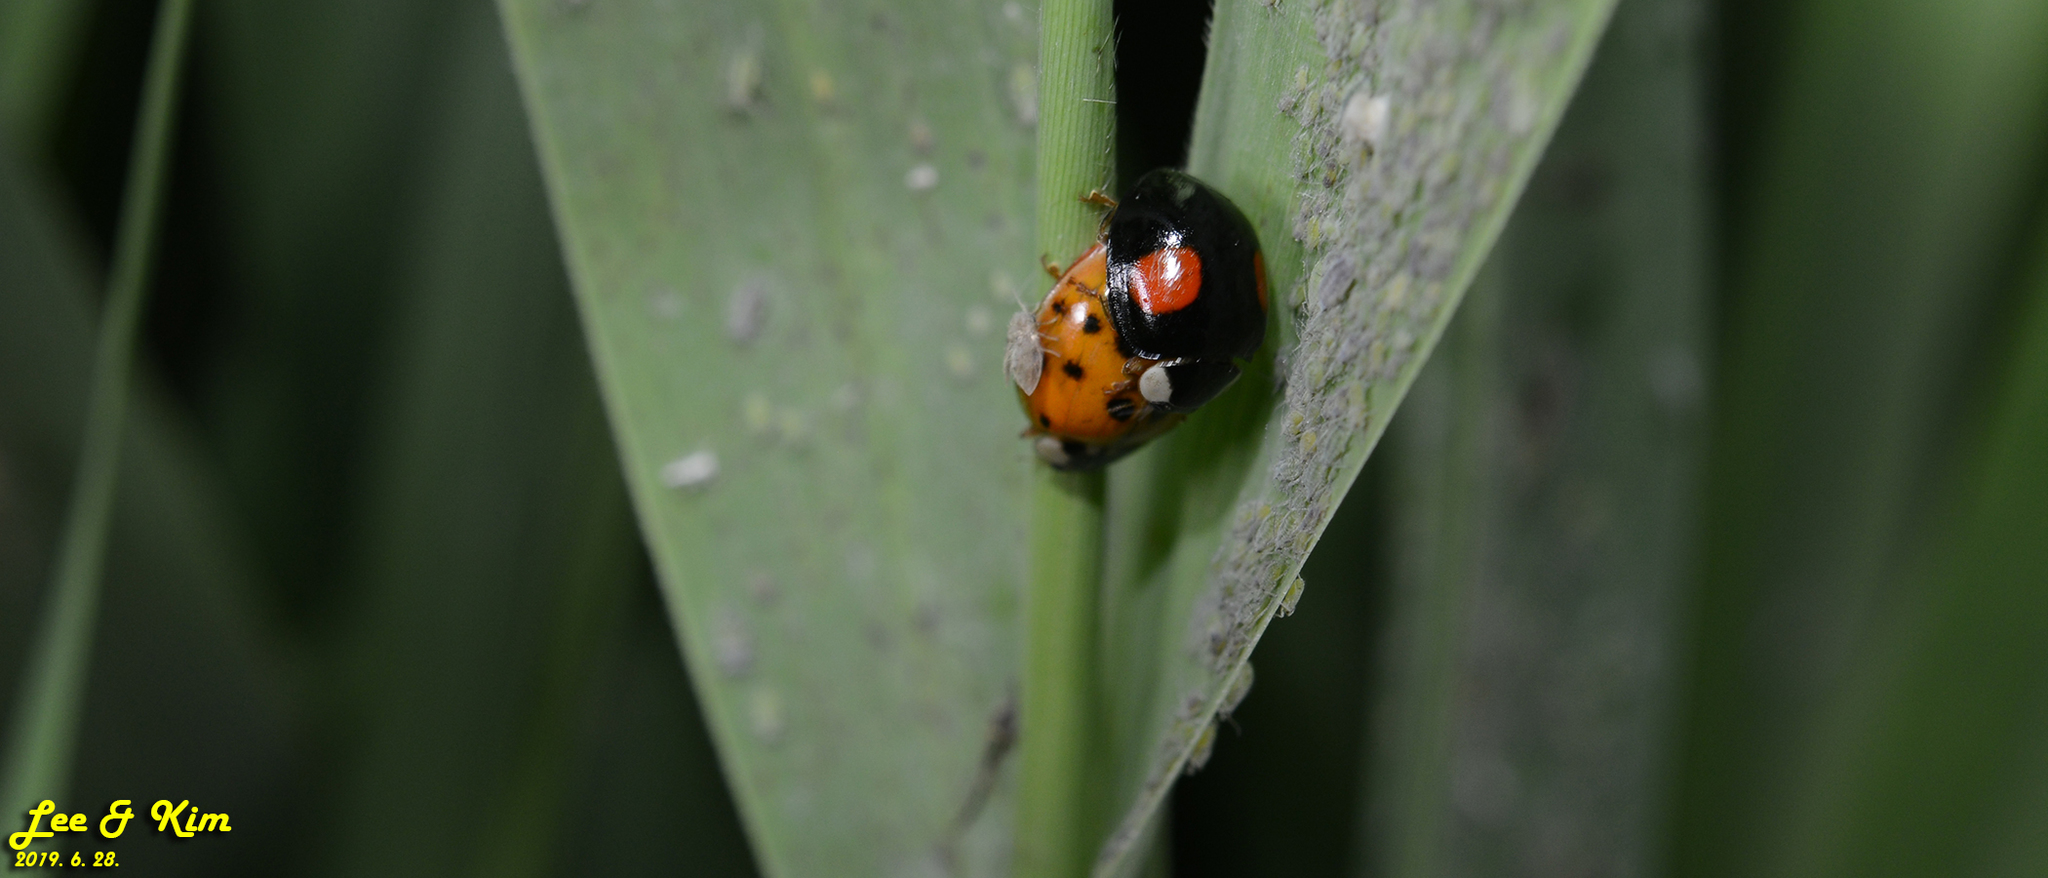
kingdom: Animalia
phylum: Arthropoda
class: Insecta
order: Coleoptera
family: Coccinellidae
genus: Harmonia
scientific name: Harmonia axyridis
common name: Harlequin ladybird
